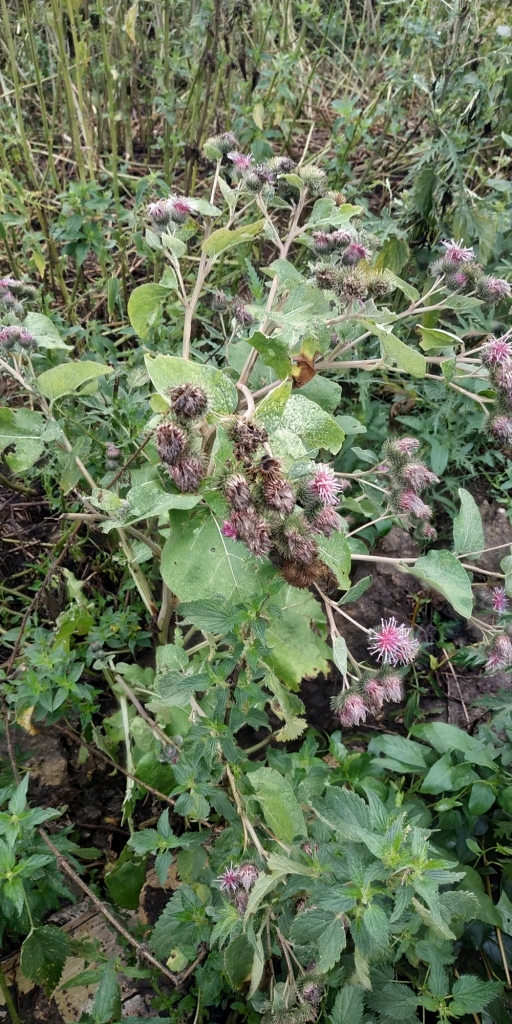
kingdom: Plantae
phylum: Tracheophyta
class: Magnoliopsida
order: Asterales
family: Asteraceae
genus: Arctium
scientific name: Arctium lappa
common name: Greater burdock
